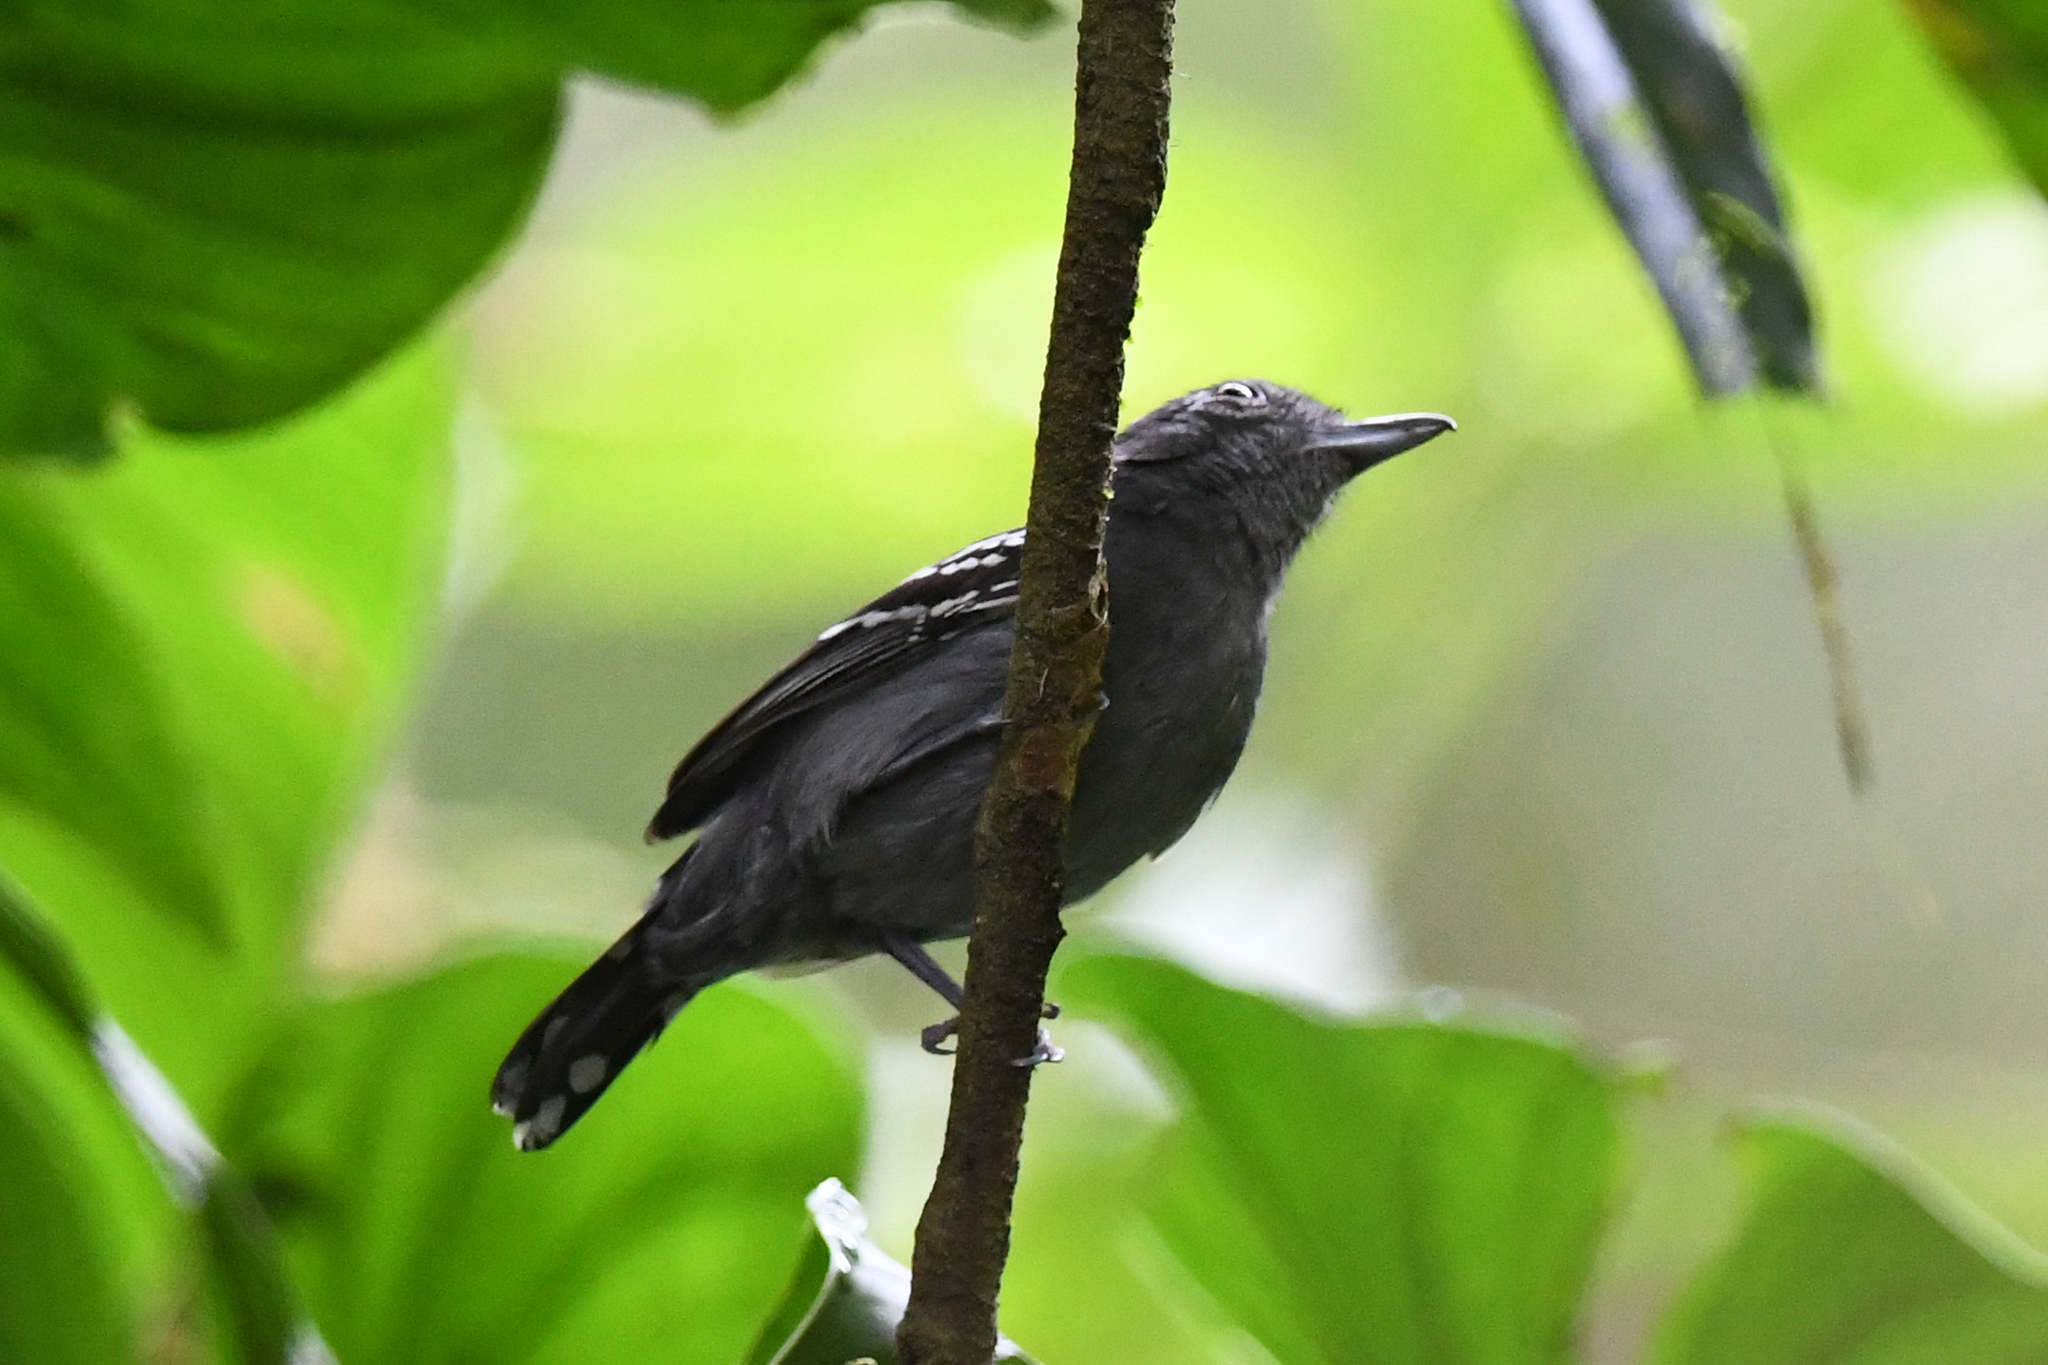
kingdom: Animalia
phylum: Chordata
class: Aves
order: Passeriformes
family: Thamnophilidae
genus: Thamnophilus
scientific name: Thamnophilus atrinucha
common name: Black-crowned antshrike
